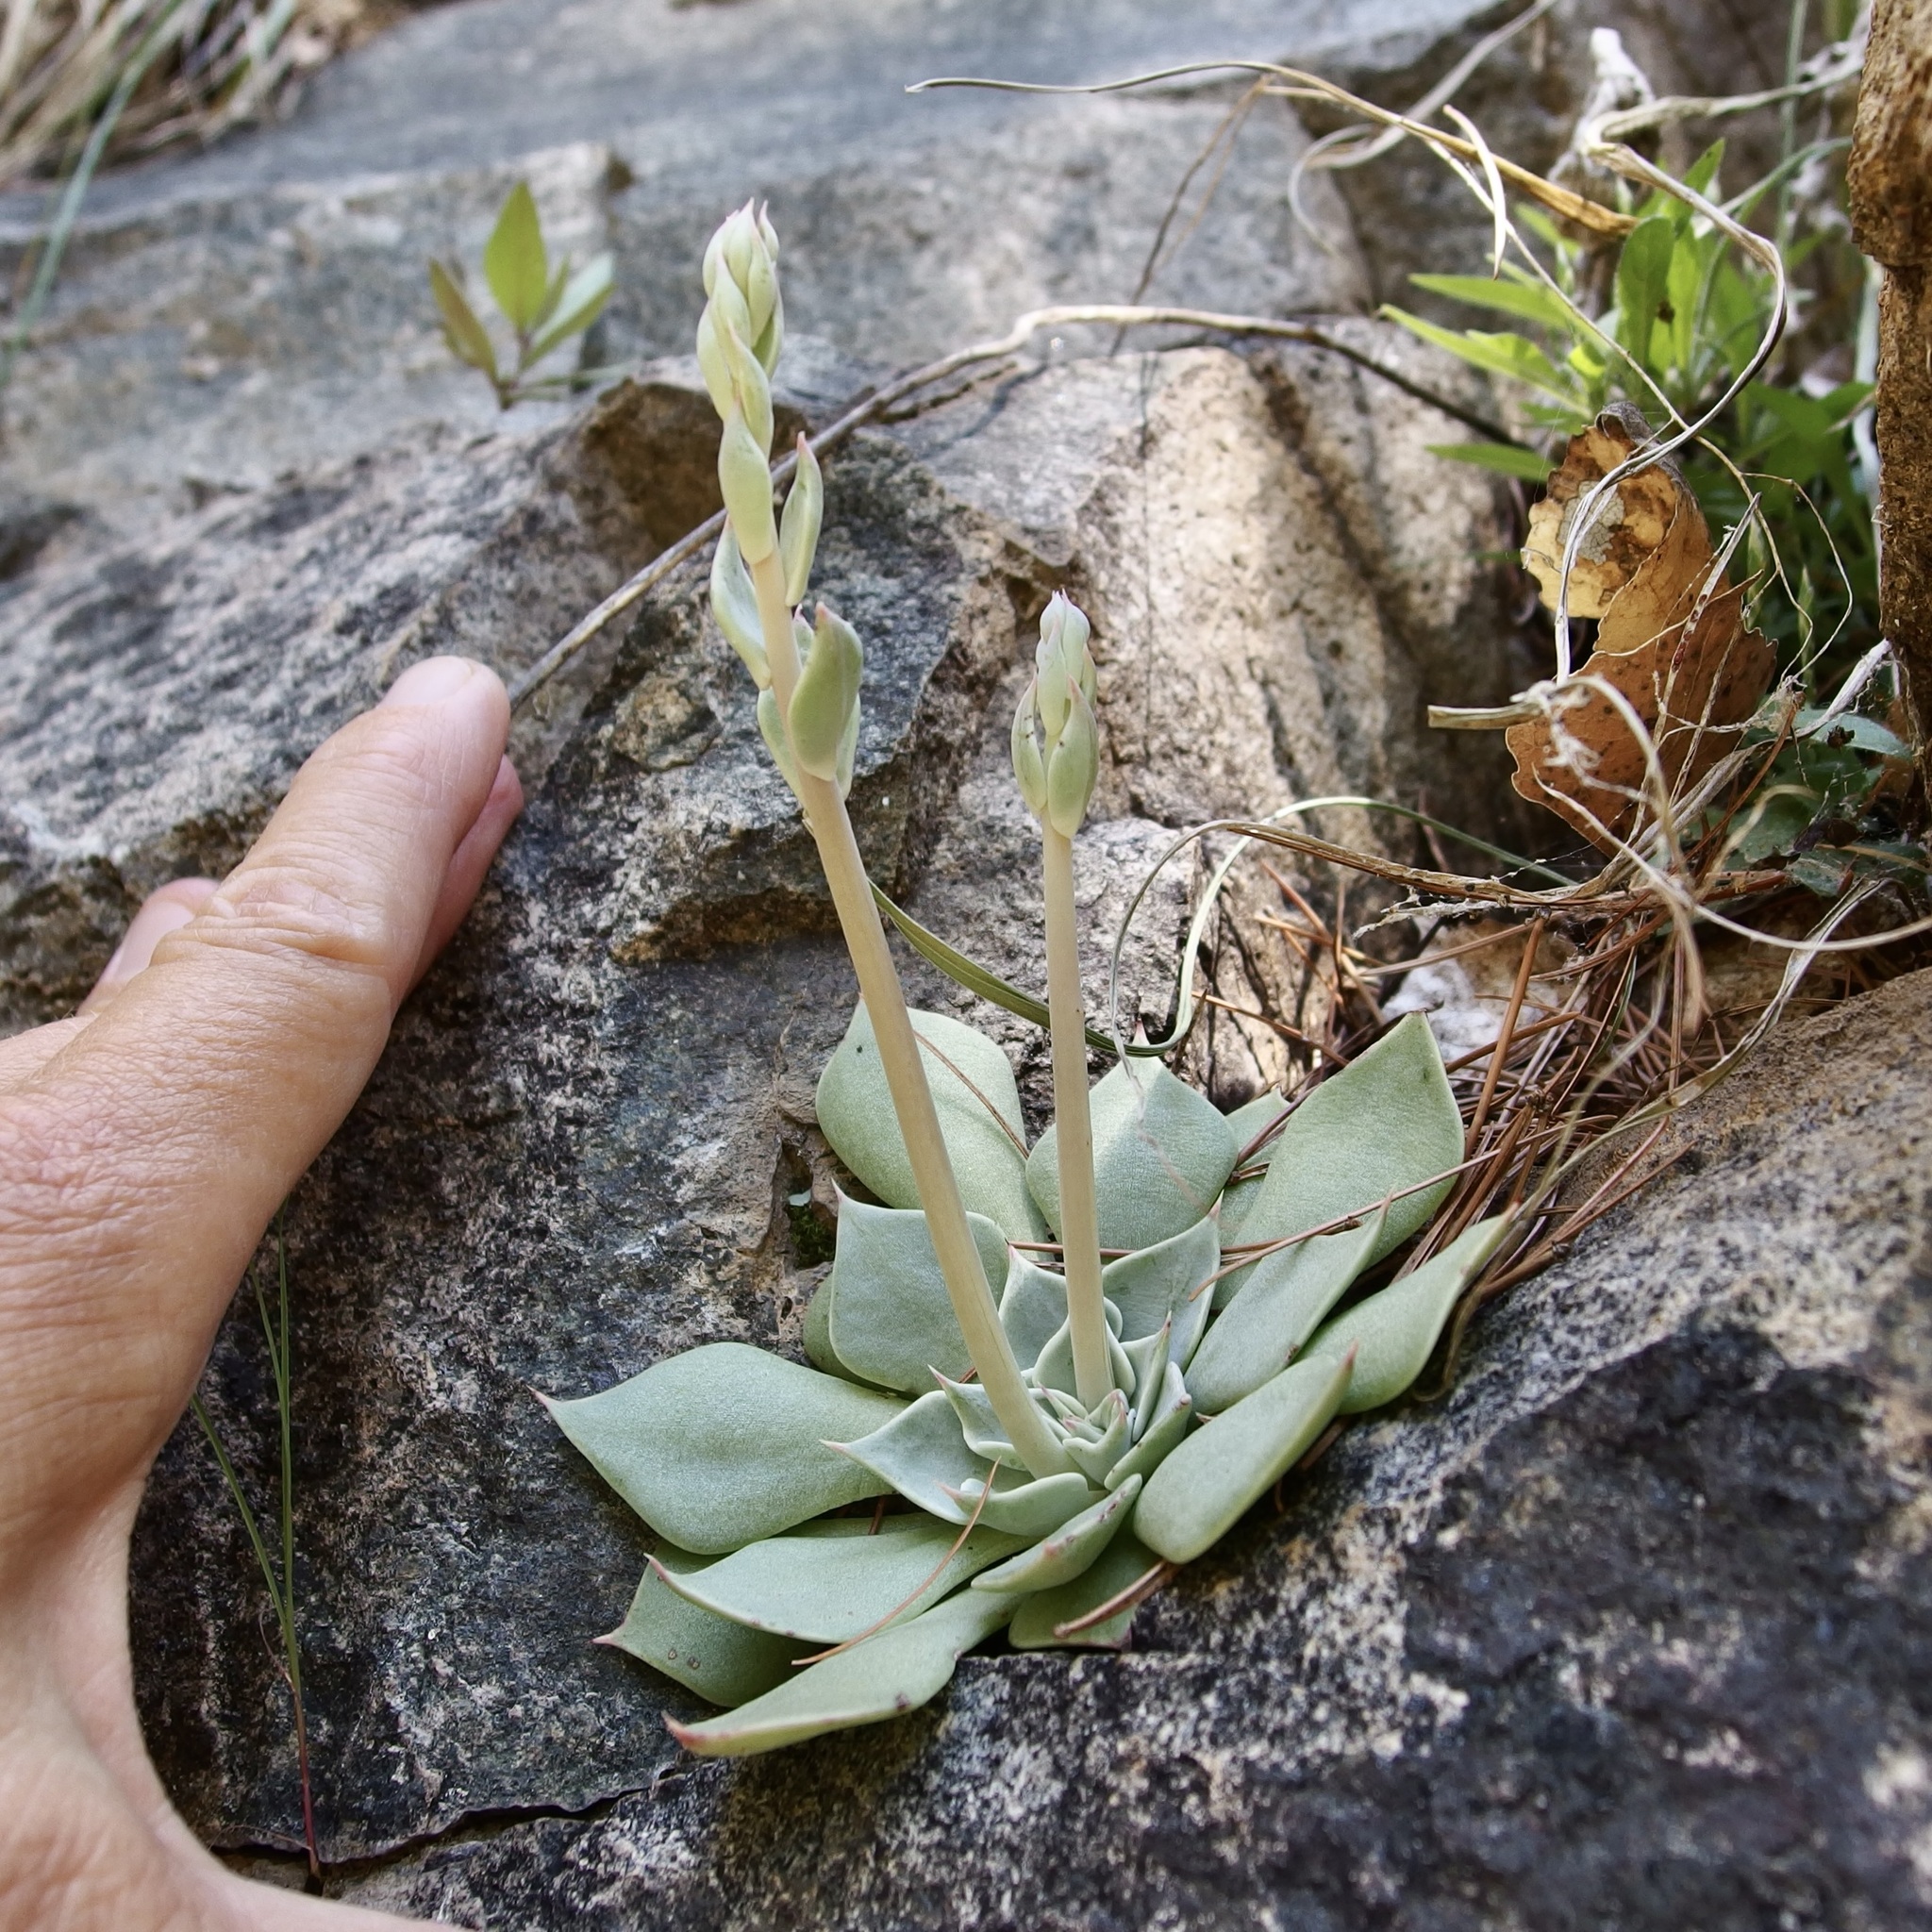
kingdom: Plantae
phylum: Tracheophyta
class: Magnoliopsida
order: Saxifragales
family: Crassulaceae
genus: Graptopetalum
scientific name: Graptopetalum bartramii
